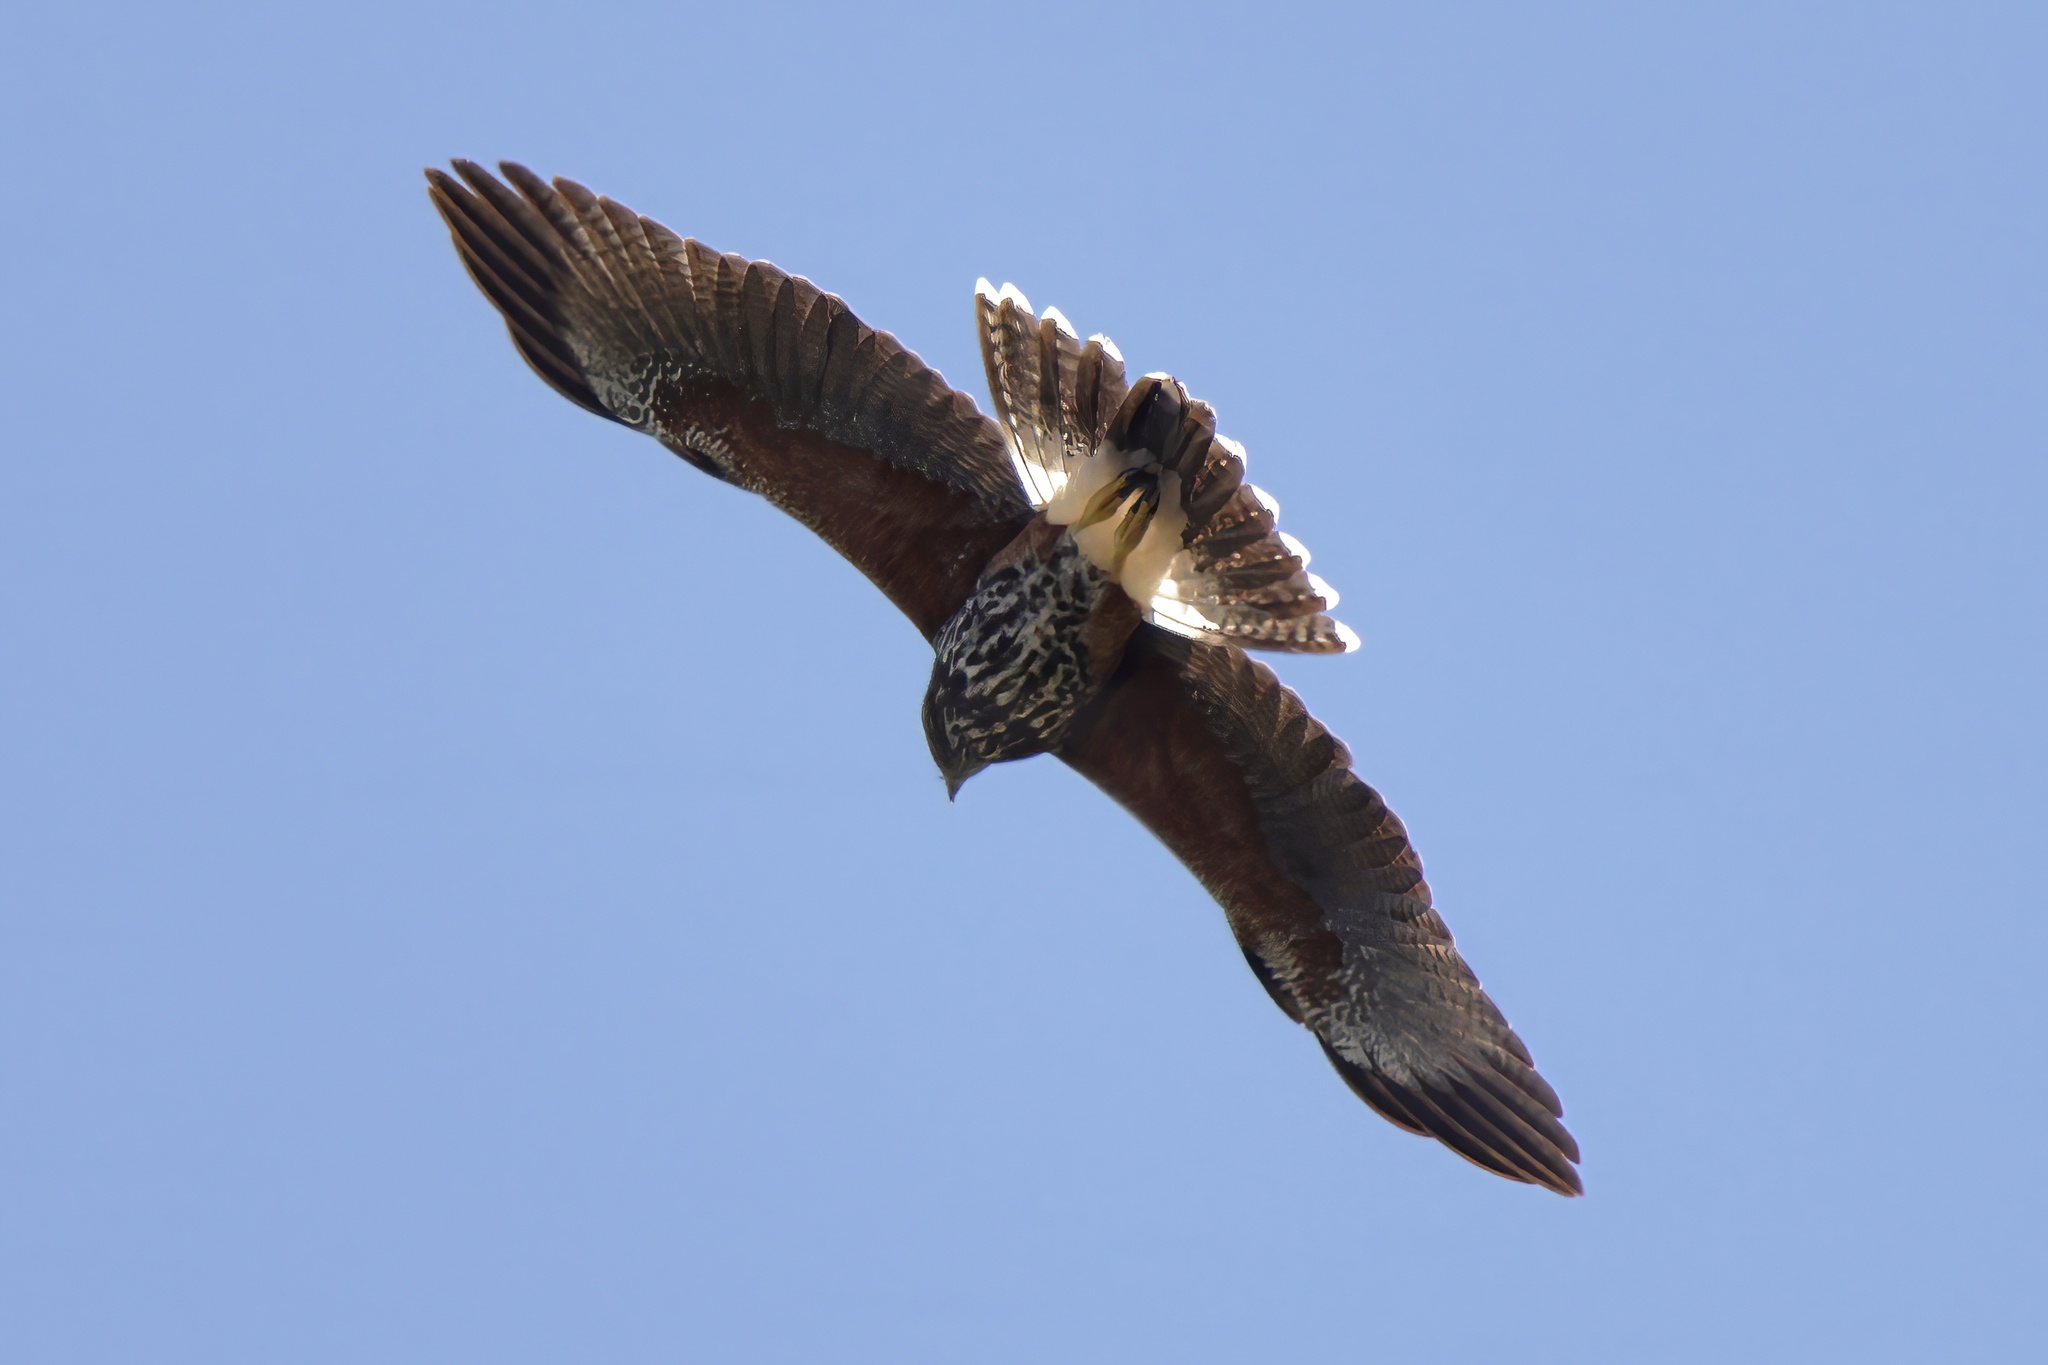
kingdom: Animalia
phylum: Chordata
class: Aves
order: Accipitriformes
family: Accipitridae
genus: Parabuteo
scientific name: Parabuteo unicinctus
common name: Harris's hawk
